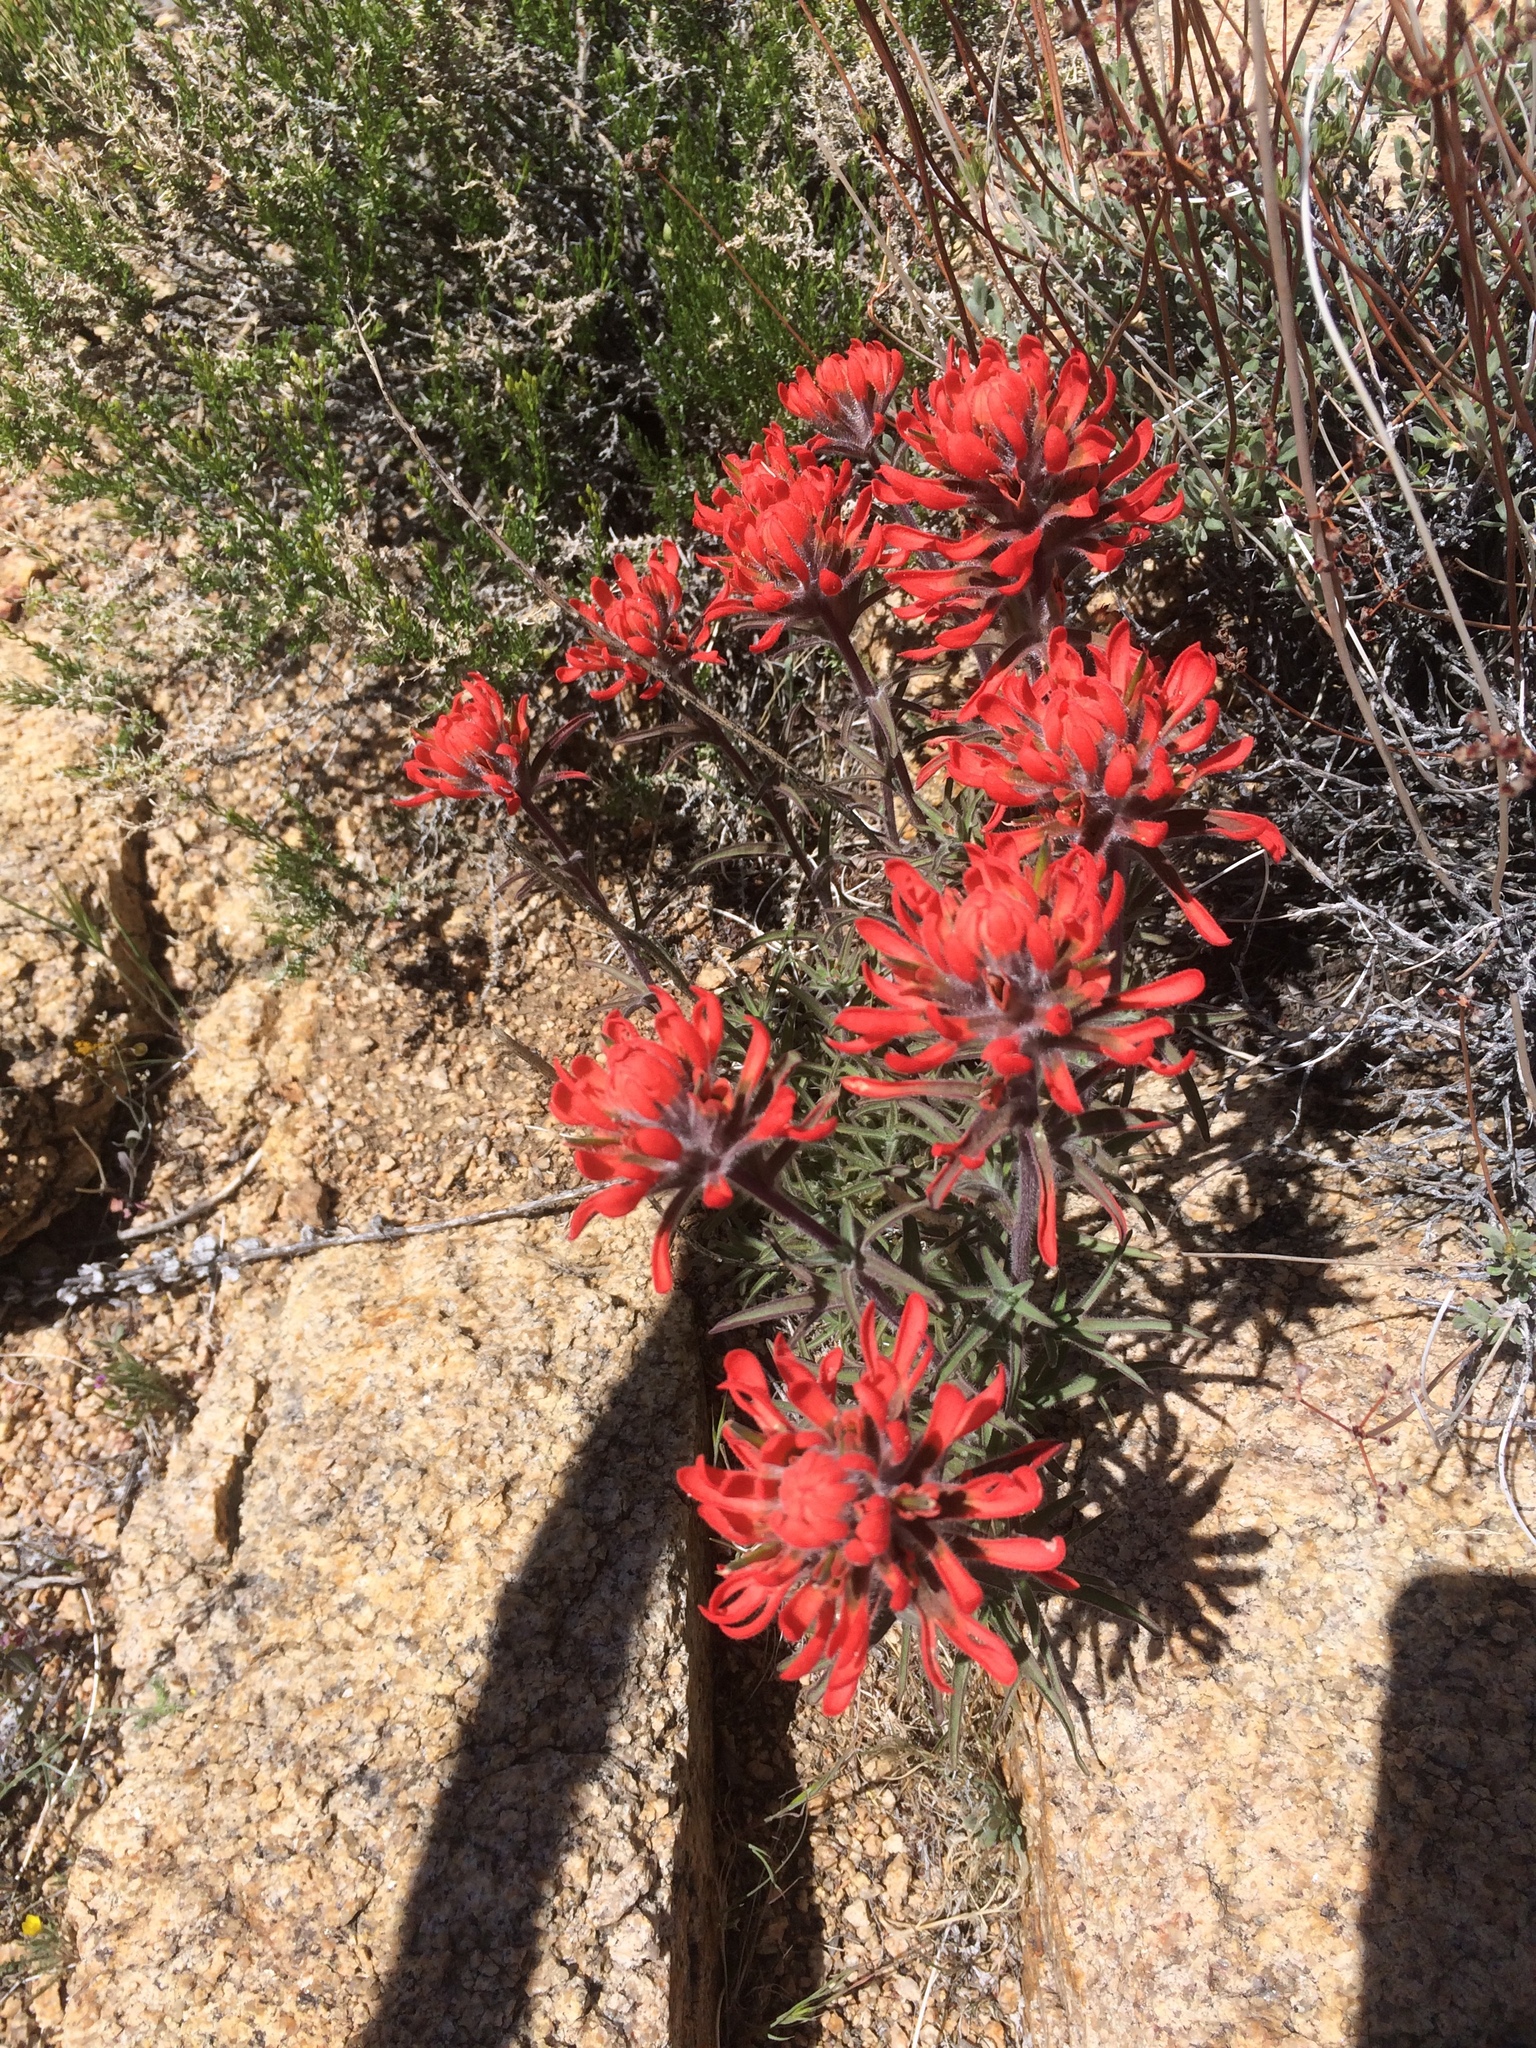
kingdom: Plantae
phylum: Tracheophyta
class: Magnoliopsida
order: Lamiales
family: Orobanchaceae
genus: Castilleja
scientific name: Castilleja chromosa
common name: Desert paintbrush
